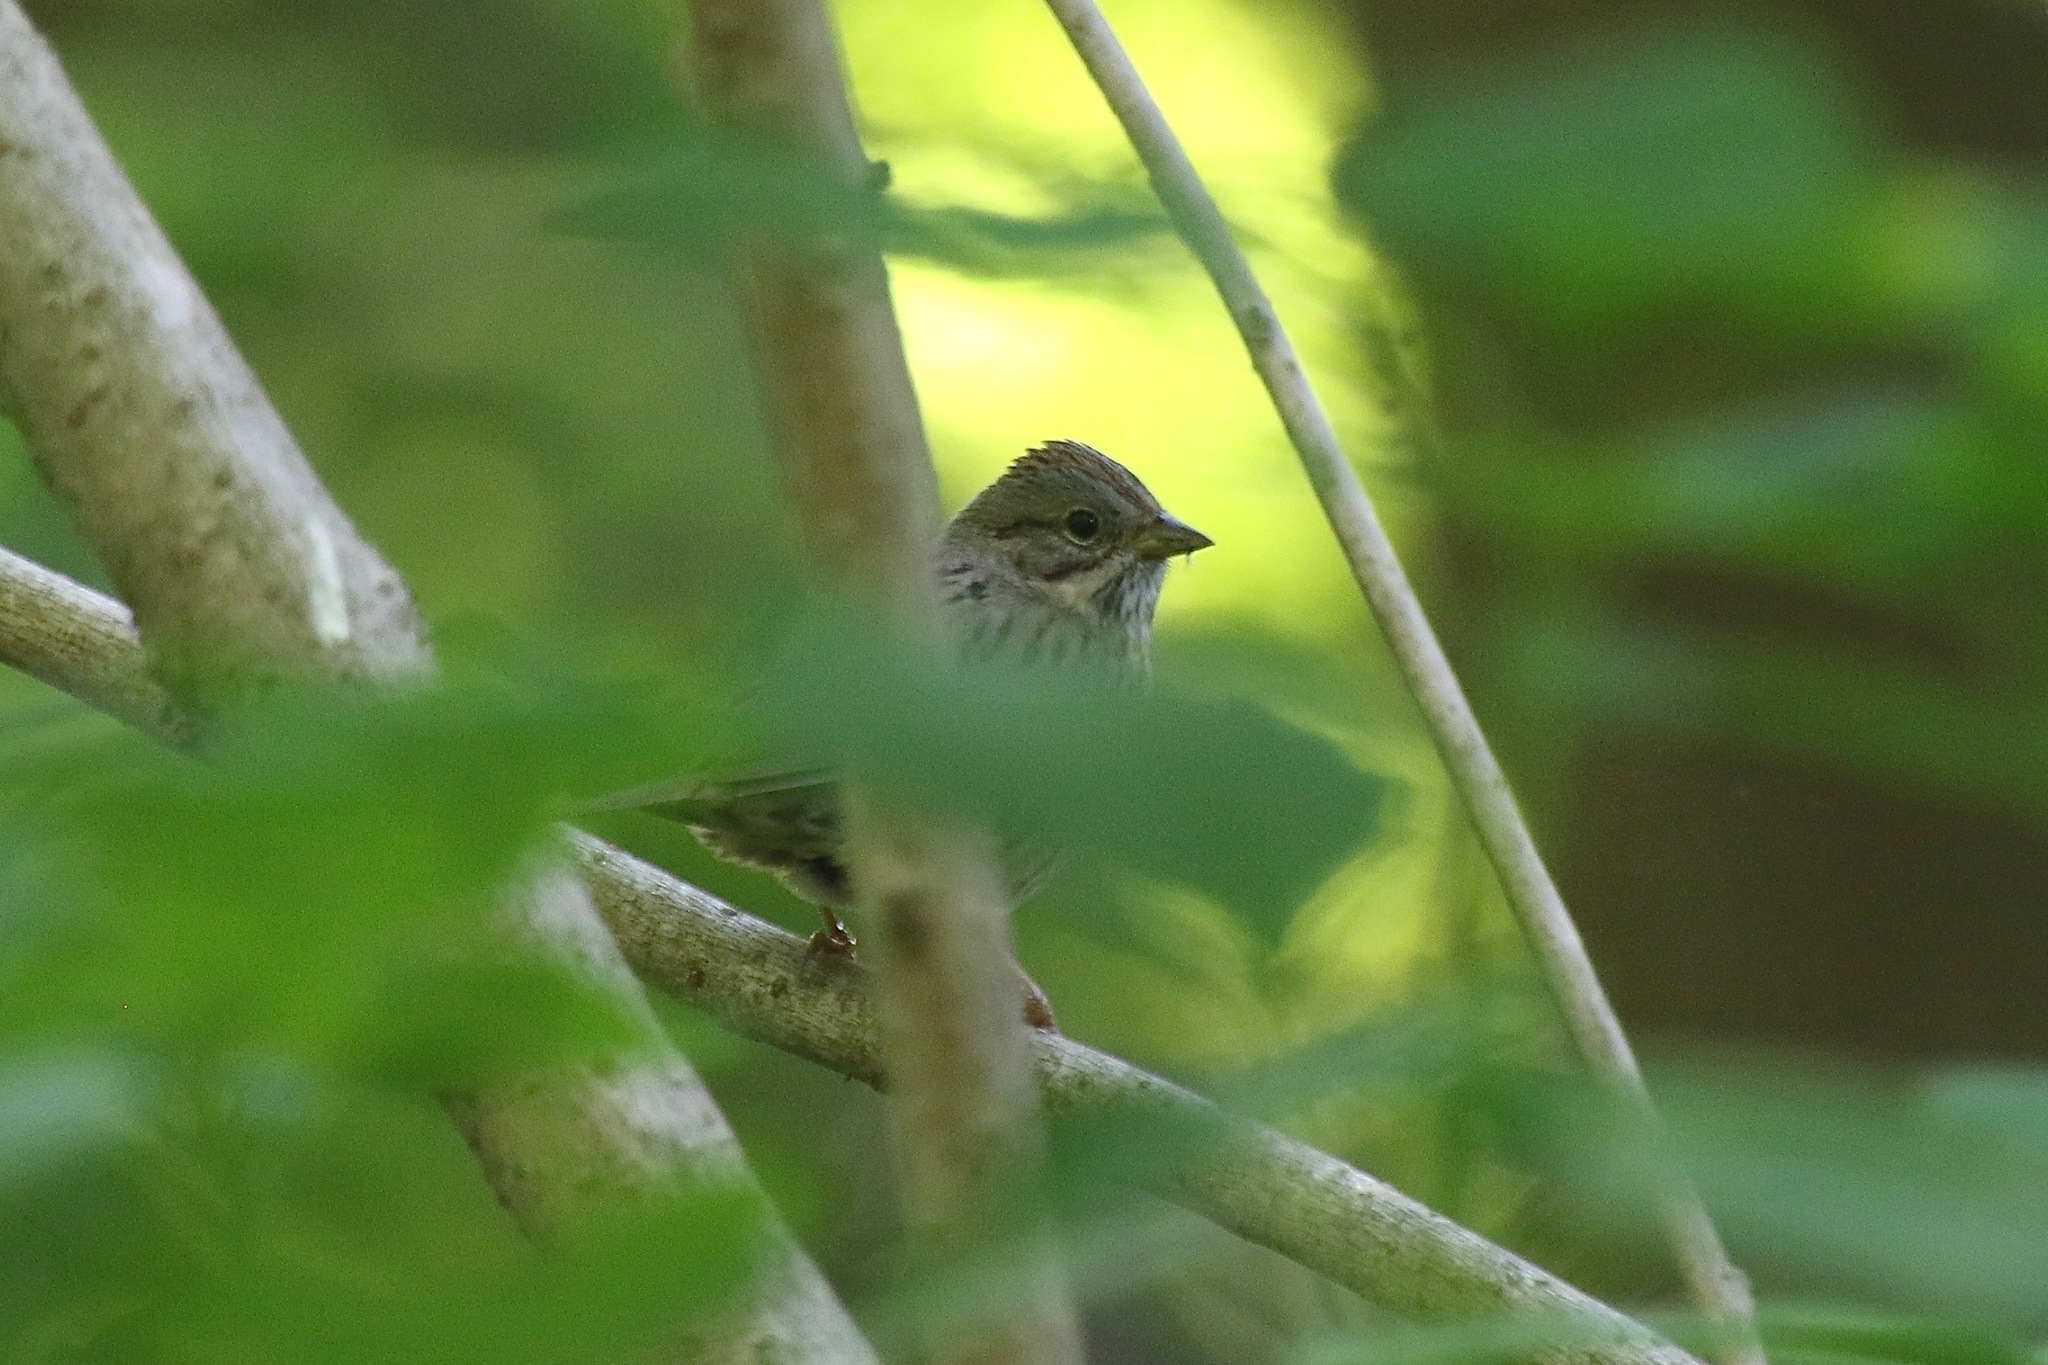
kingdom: Animalia
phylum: Chordata
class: Aves
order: Passeriformes
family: Passerellidae
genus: Melospiza
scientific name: Melospiza lincolnii
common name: Lincoln's sparrow
